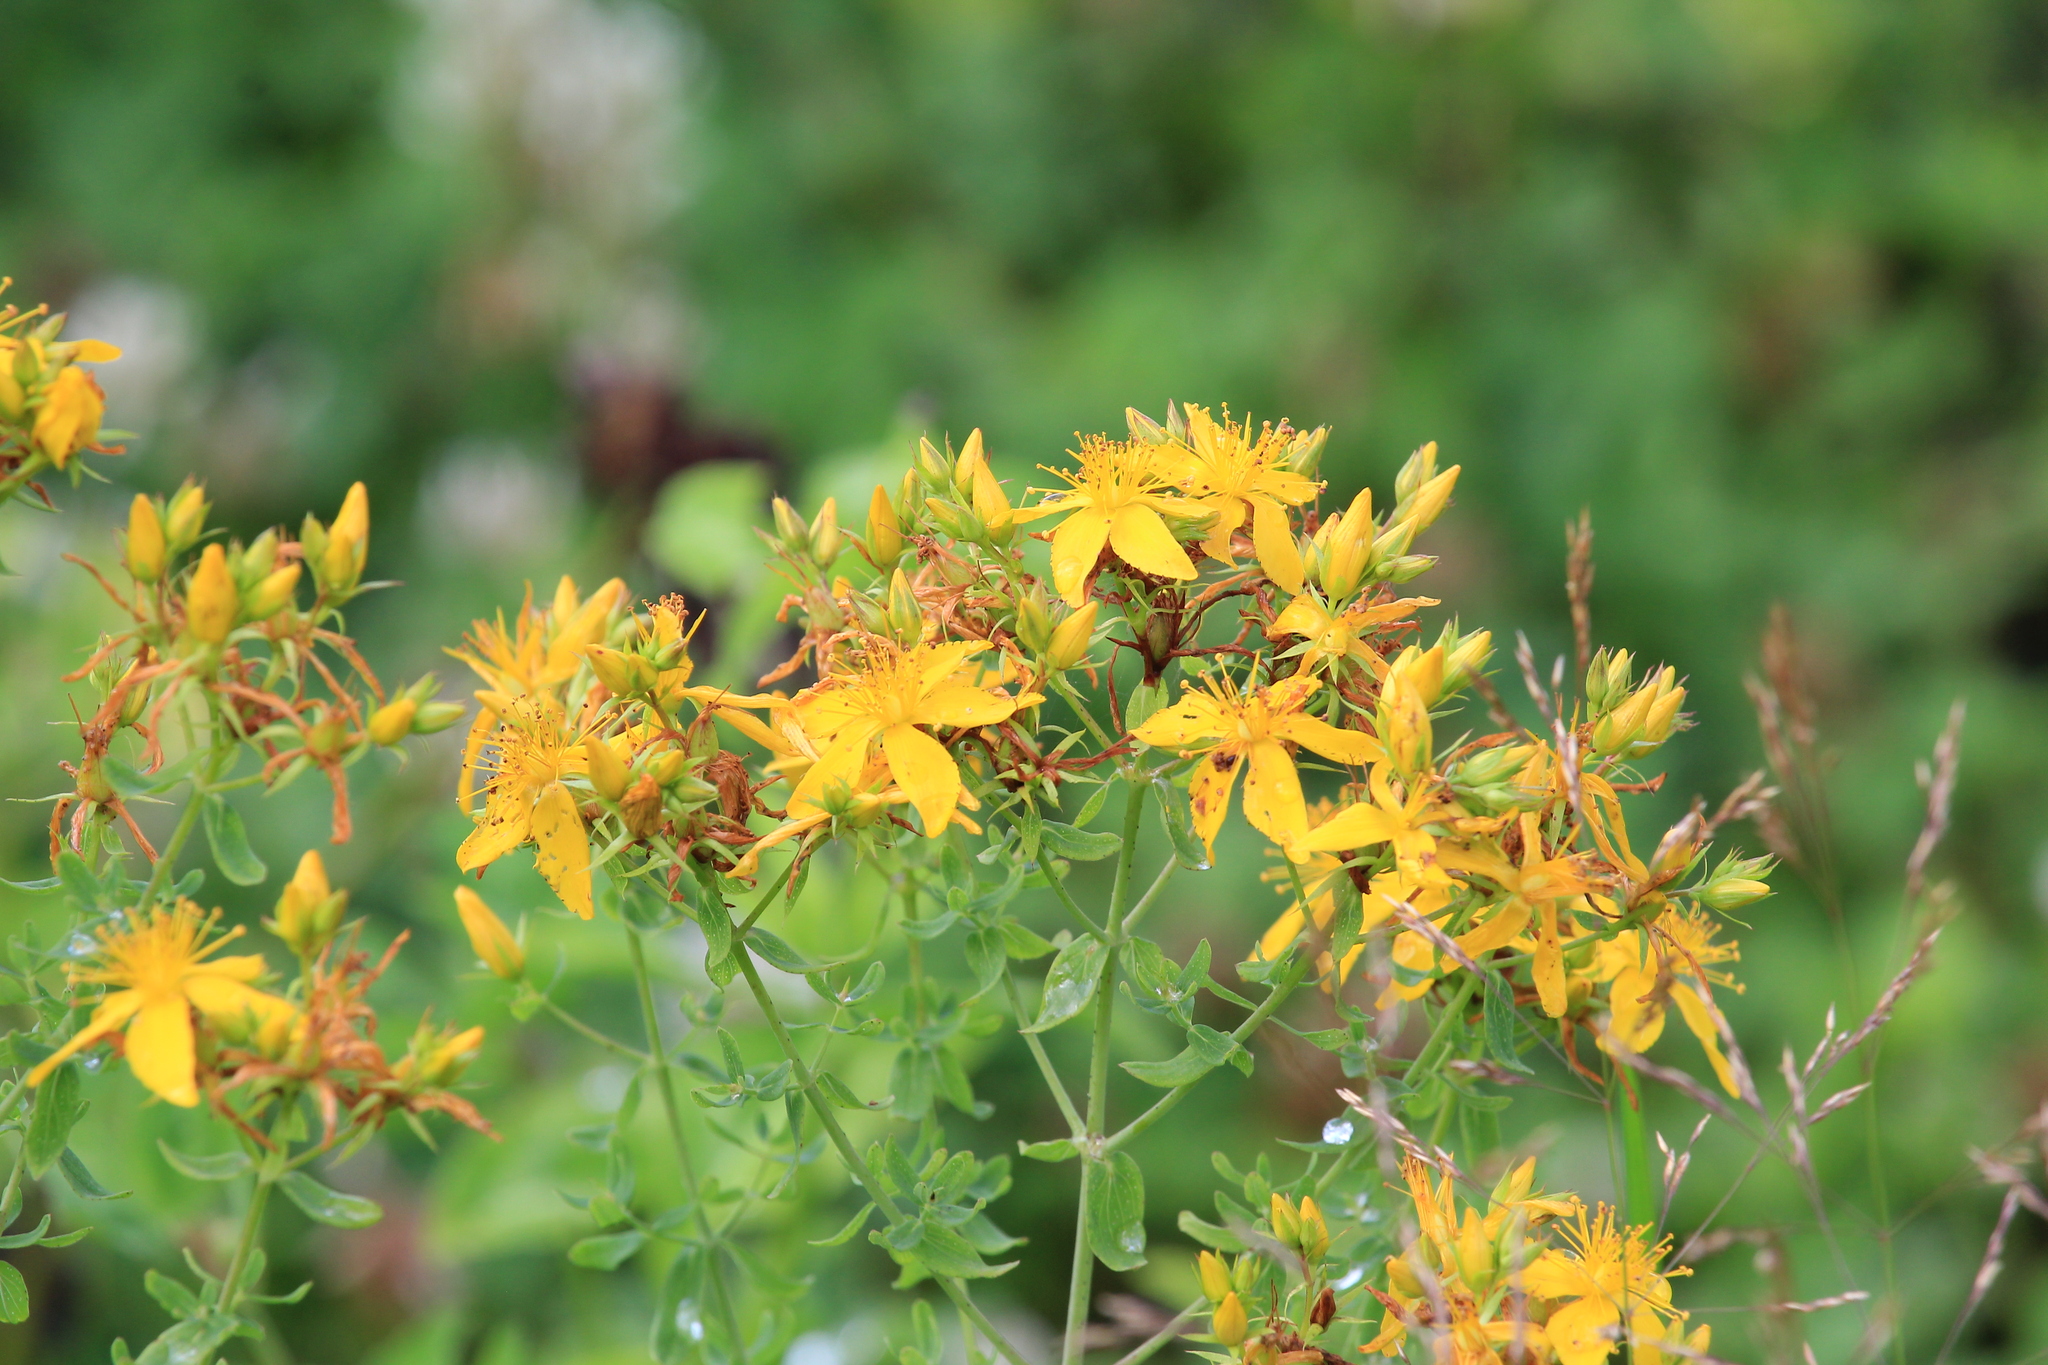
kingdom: Plantae
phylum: Tracheophyta
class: Magnoliopsida
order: Malpighiales
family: Hypericaceae
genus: Hypericum
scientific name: Hypericum perforatum
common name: Common st. johnswort
